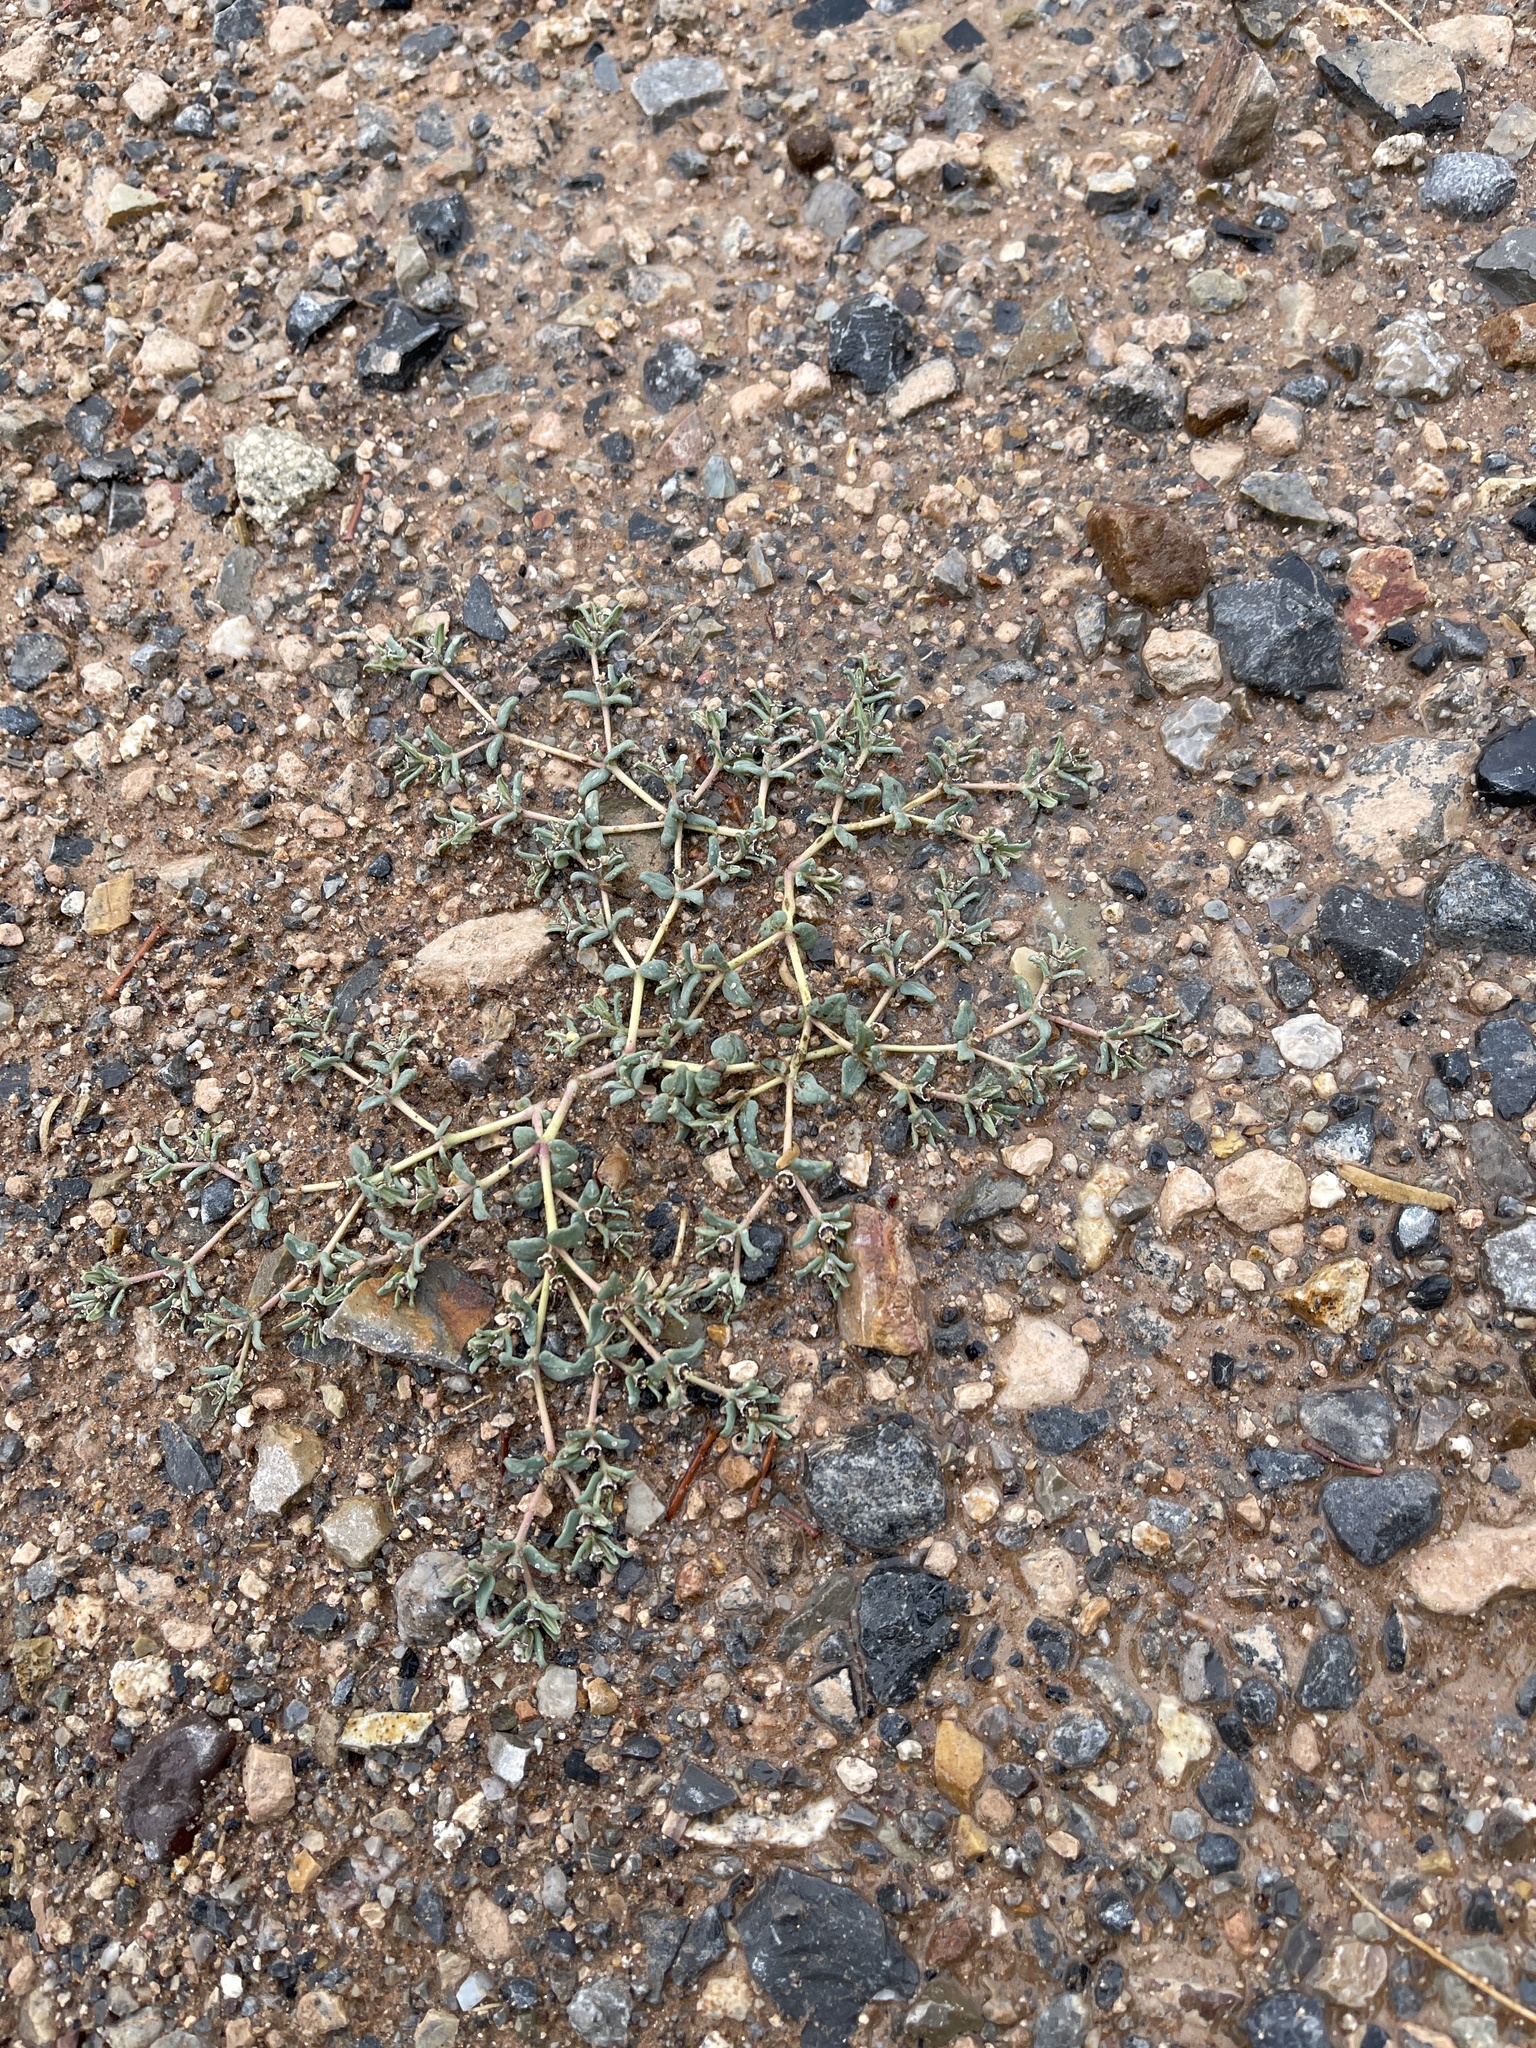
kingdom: Plantae
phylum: Tracheophyta
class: Magnoliopsida
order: Malpighiales
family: Euphorbiaceae
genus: Euphorbia
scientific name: Euphorbia lata
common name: Hoary euphorbia
